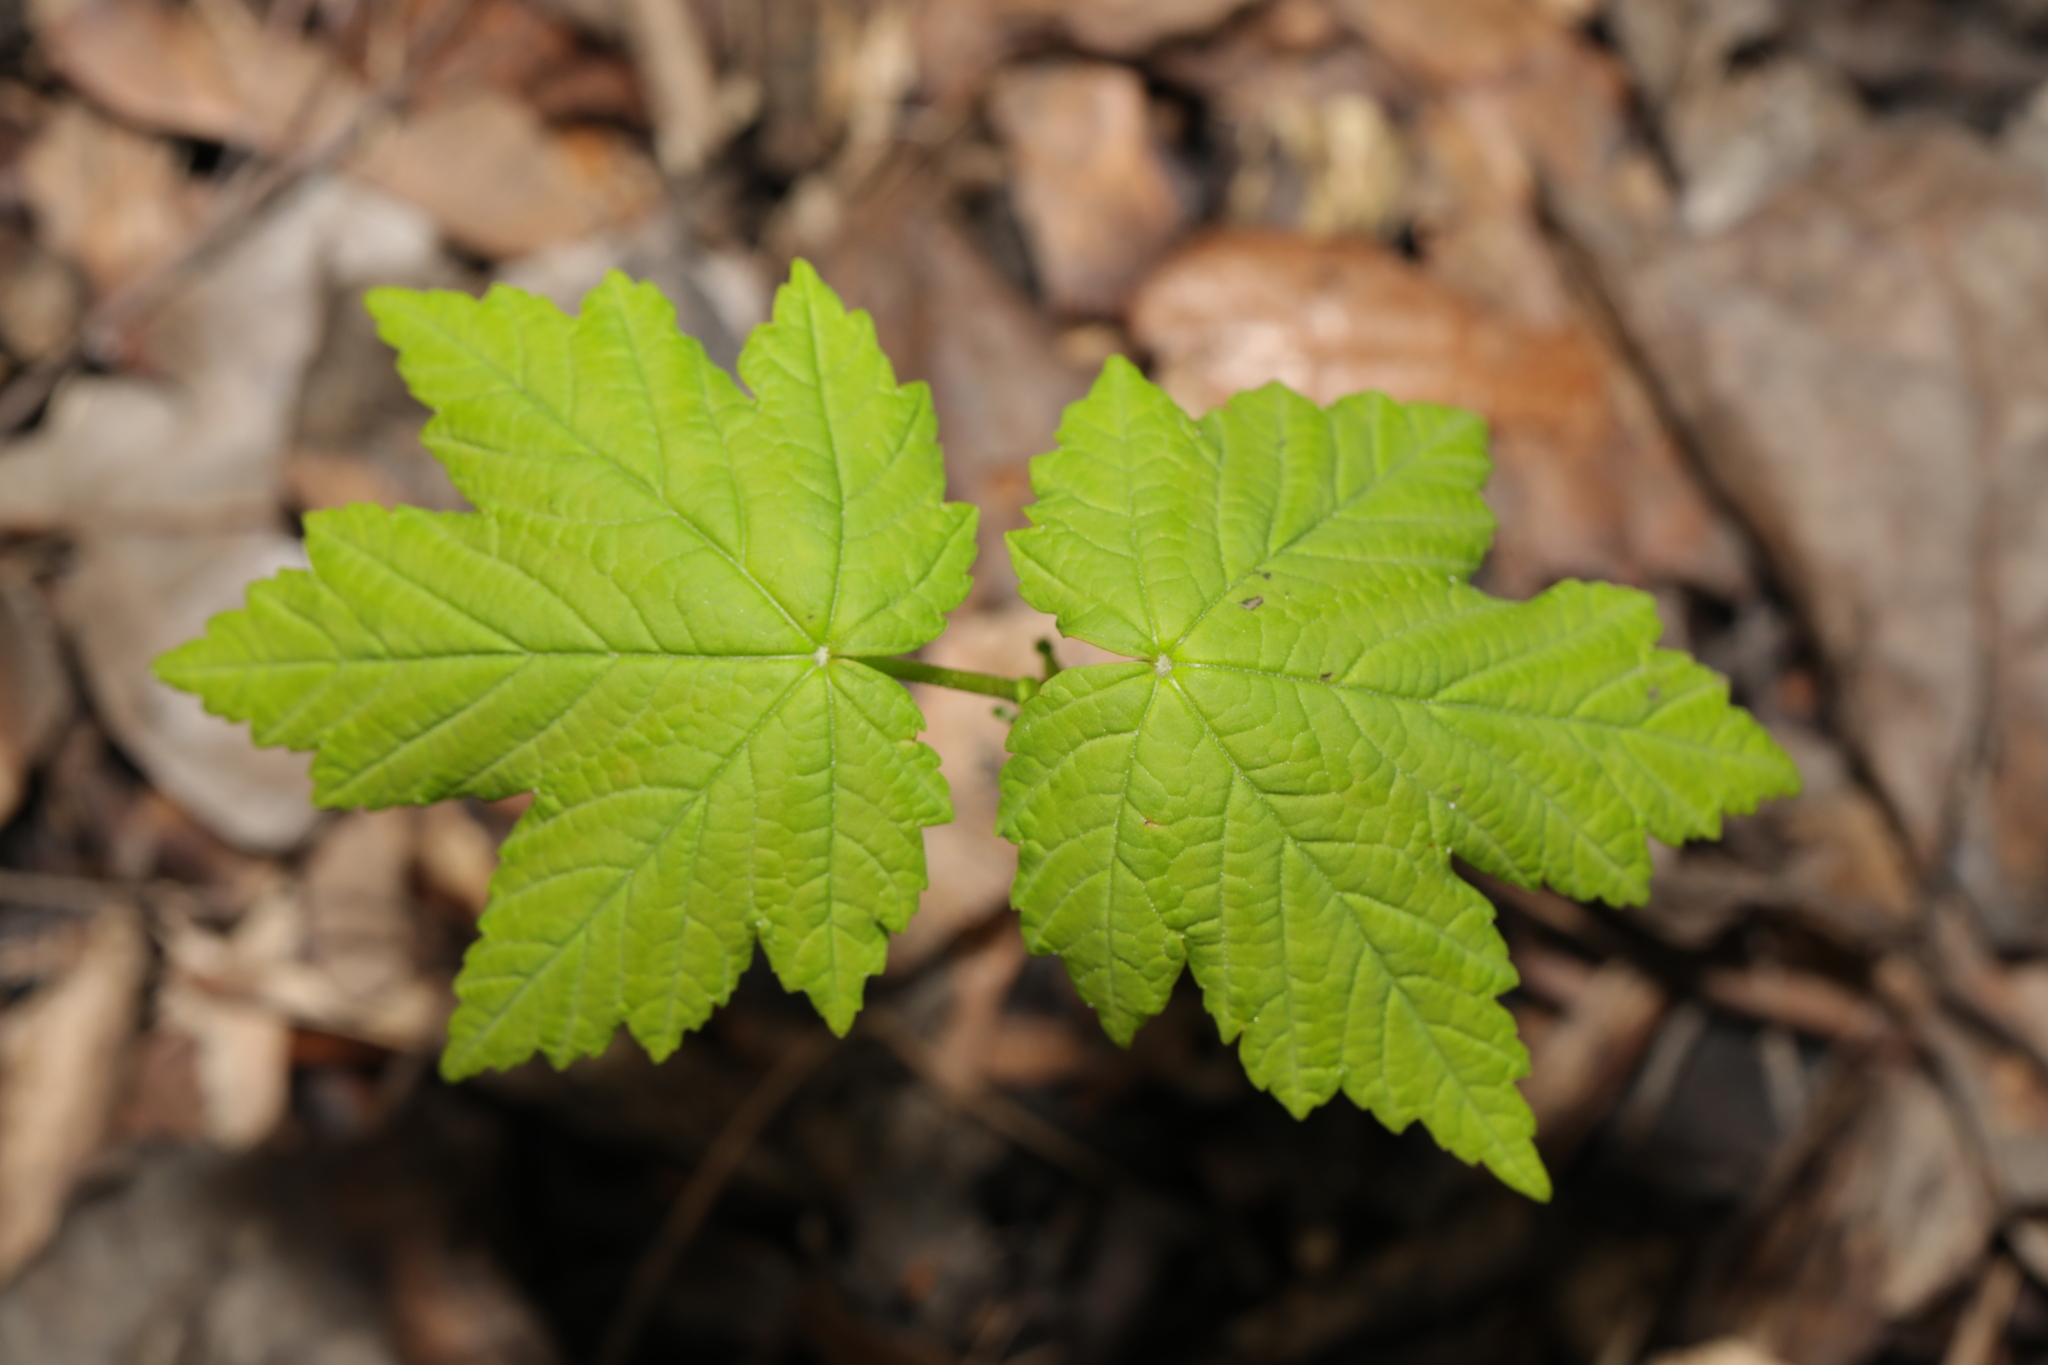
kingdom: Plantae
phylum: Tracheophyta
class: Magnoliopsida
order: Sapindales
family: Sapindaceae
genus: Acer
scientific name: Acer pseudoplatanus
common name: Sycamore
